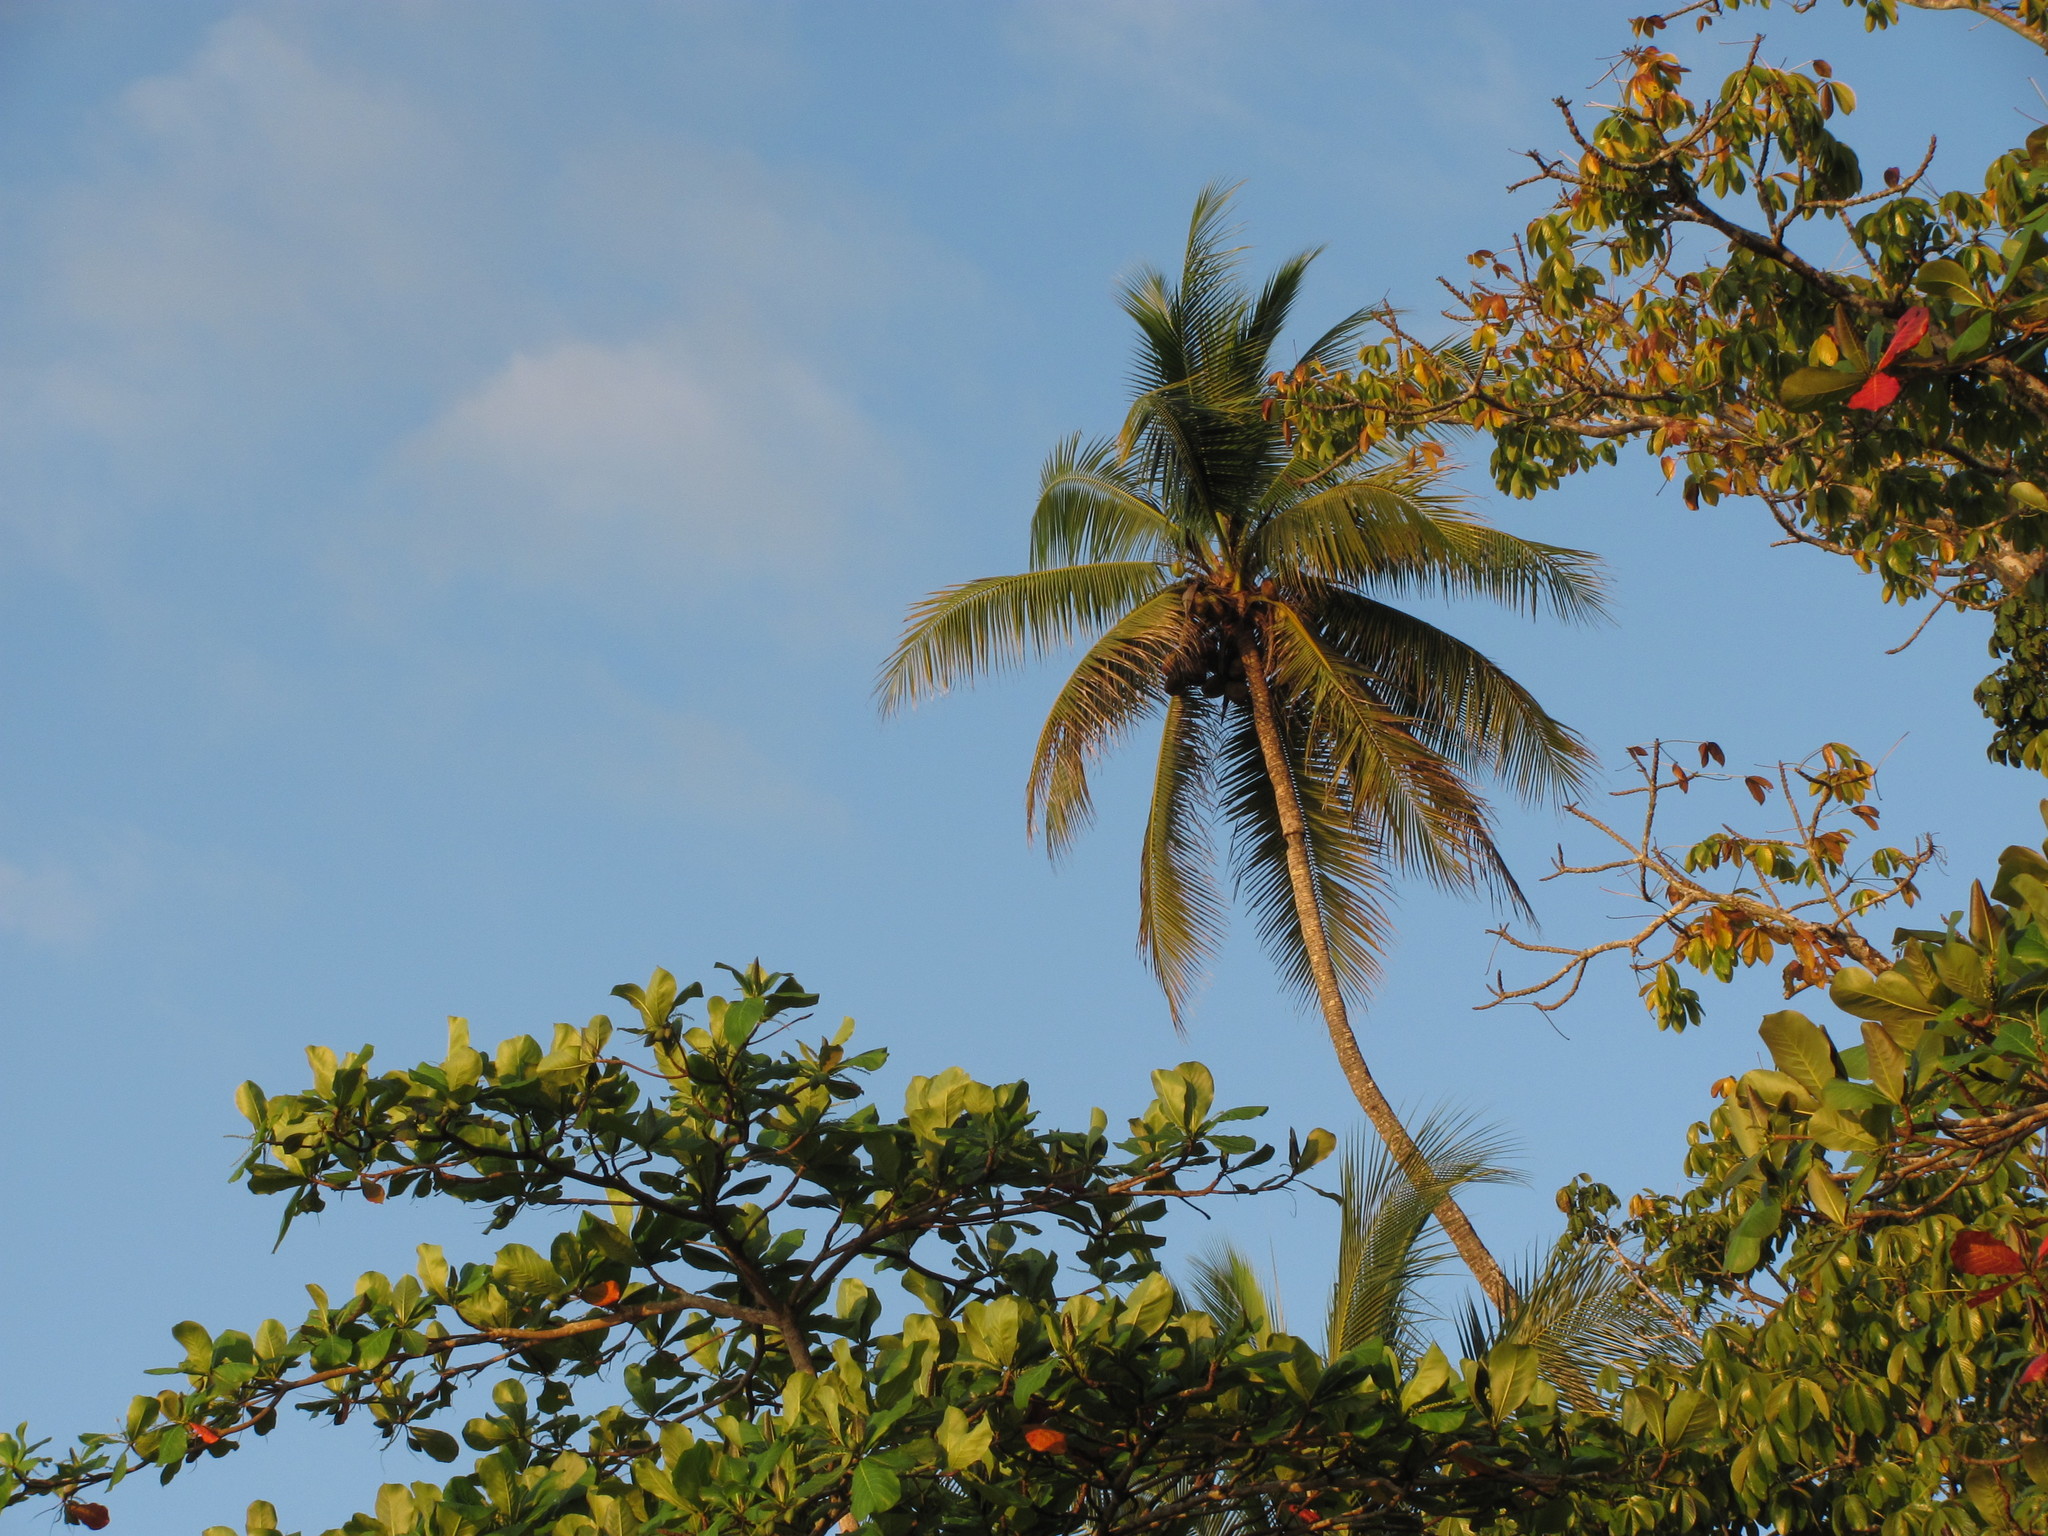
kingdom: Plantae
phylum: Tracheophyta
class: Liliopsida
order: Arecales
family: Arecaceae
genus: Cocos
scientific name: Cocos nucifera
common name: Coconut palm
